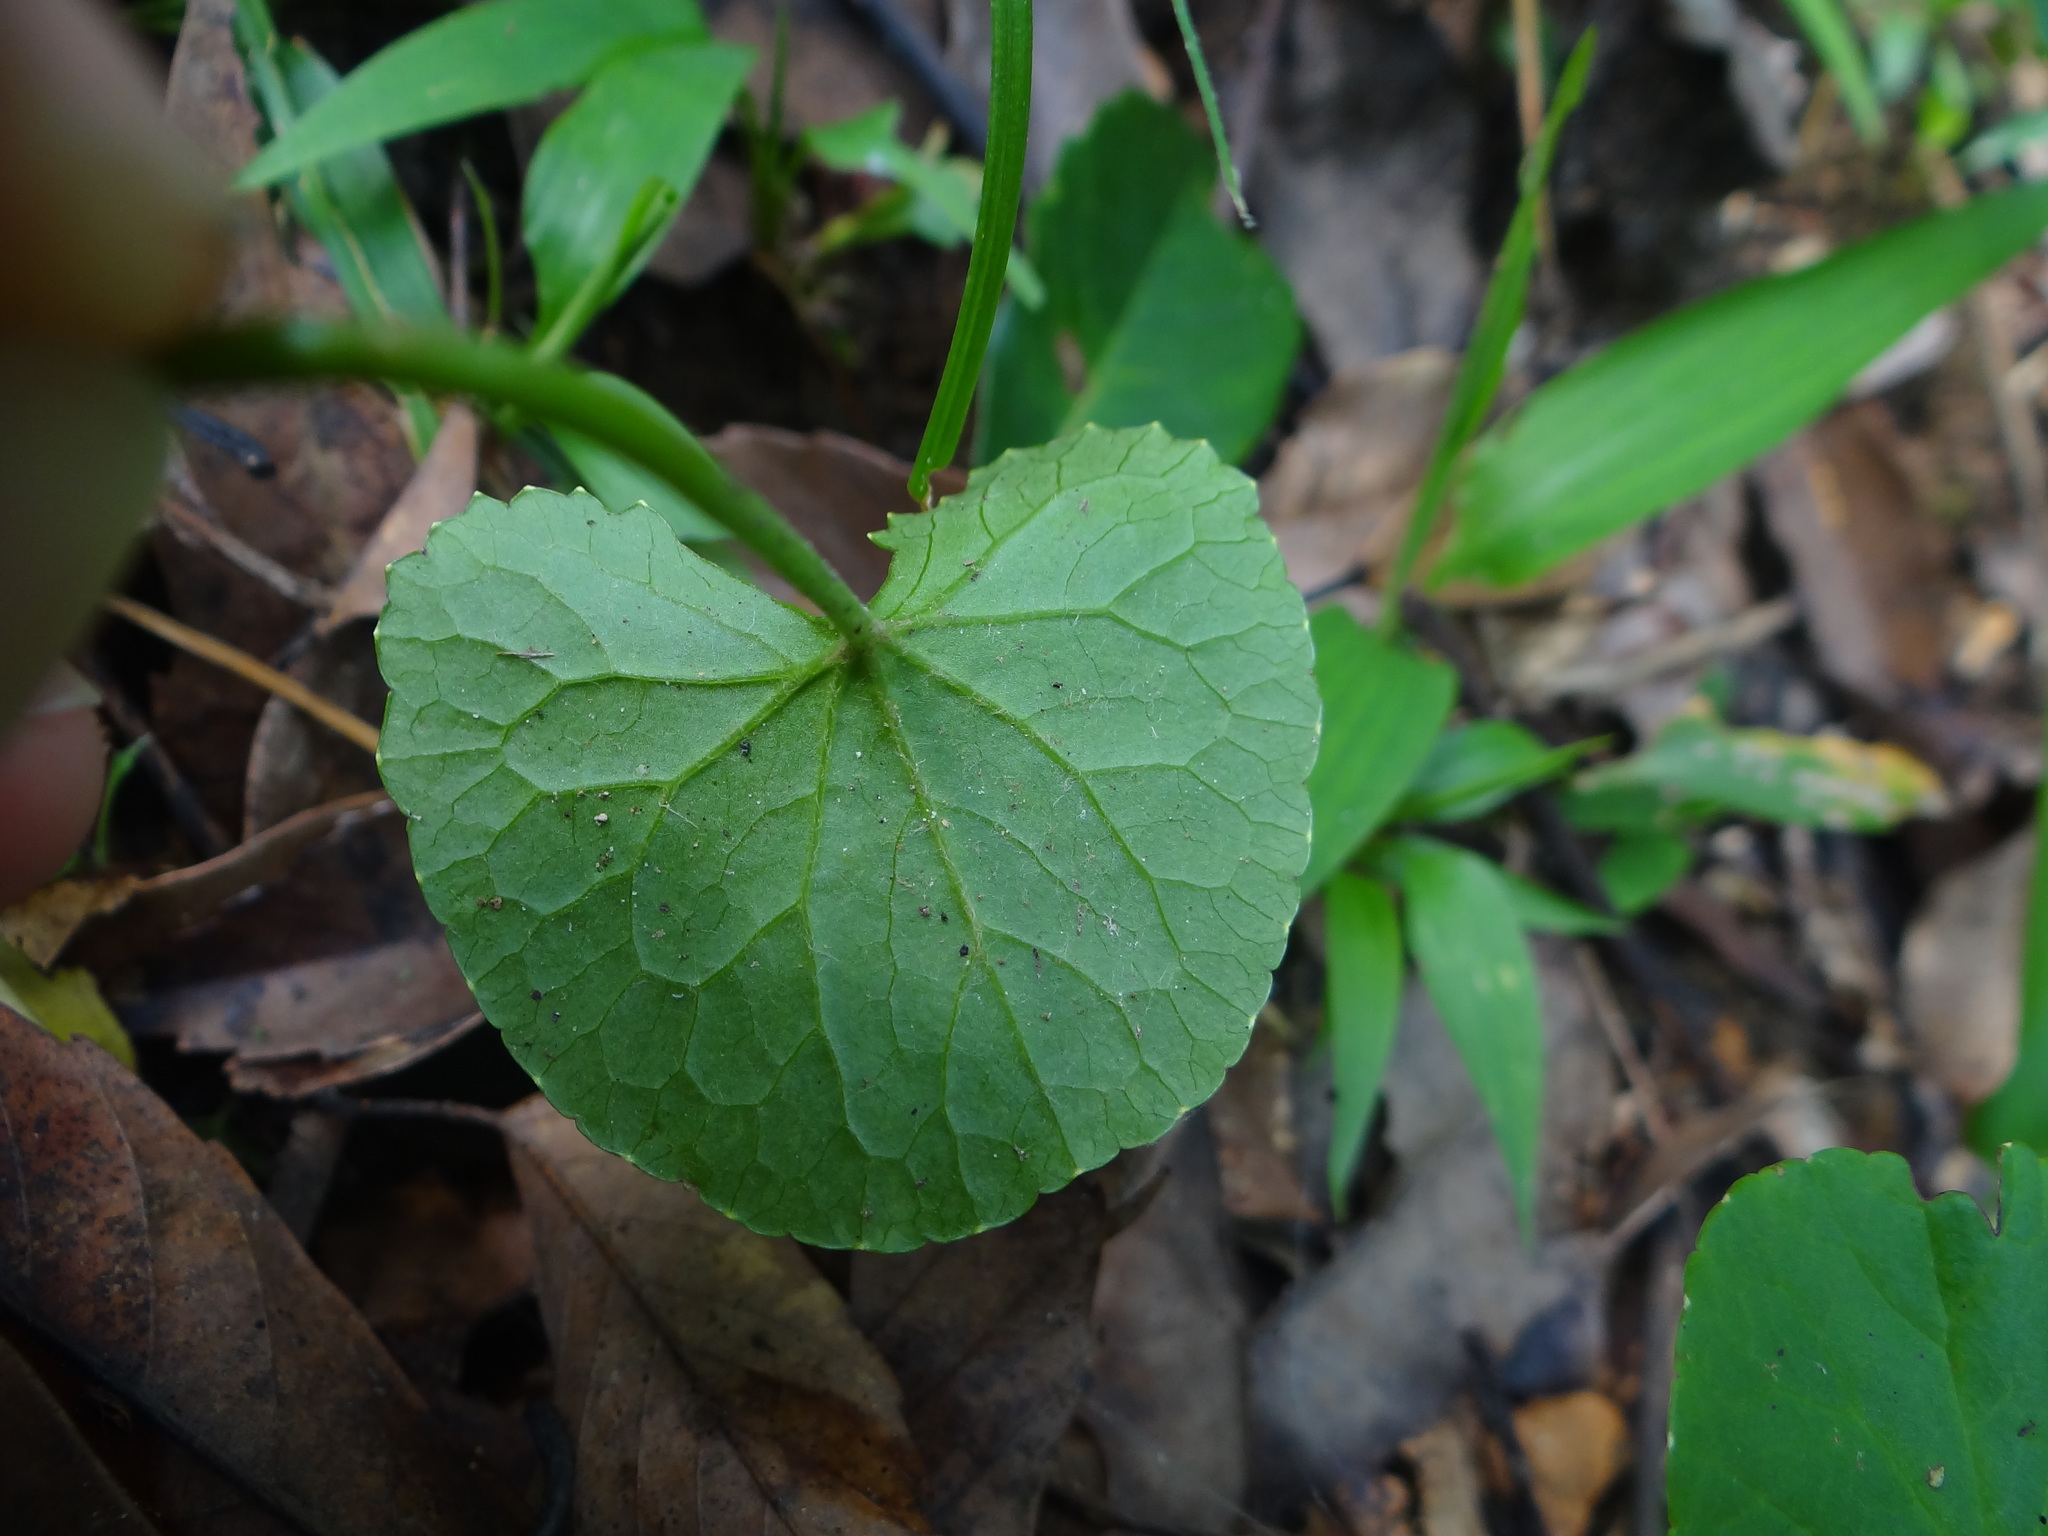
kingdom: Plantae
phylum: Tracheophyta
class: Magnoliopsida
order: Apiales
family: Apiaceae
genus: Centella
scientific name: Centella asiatica
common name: Spadeleaf
